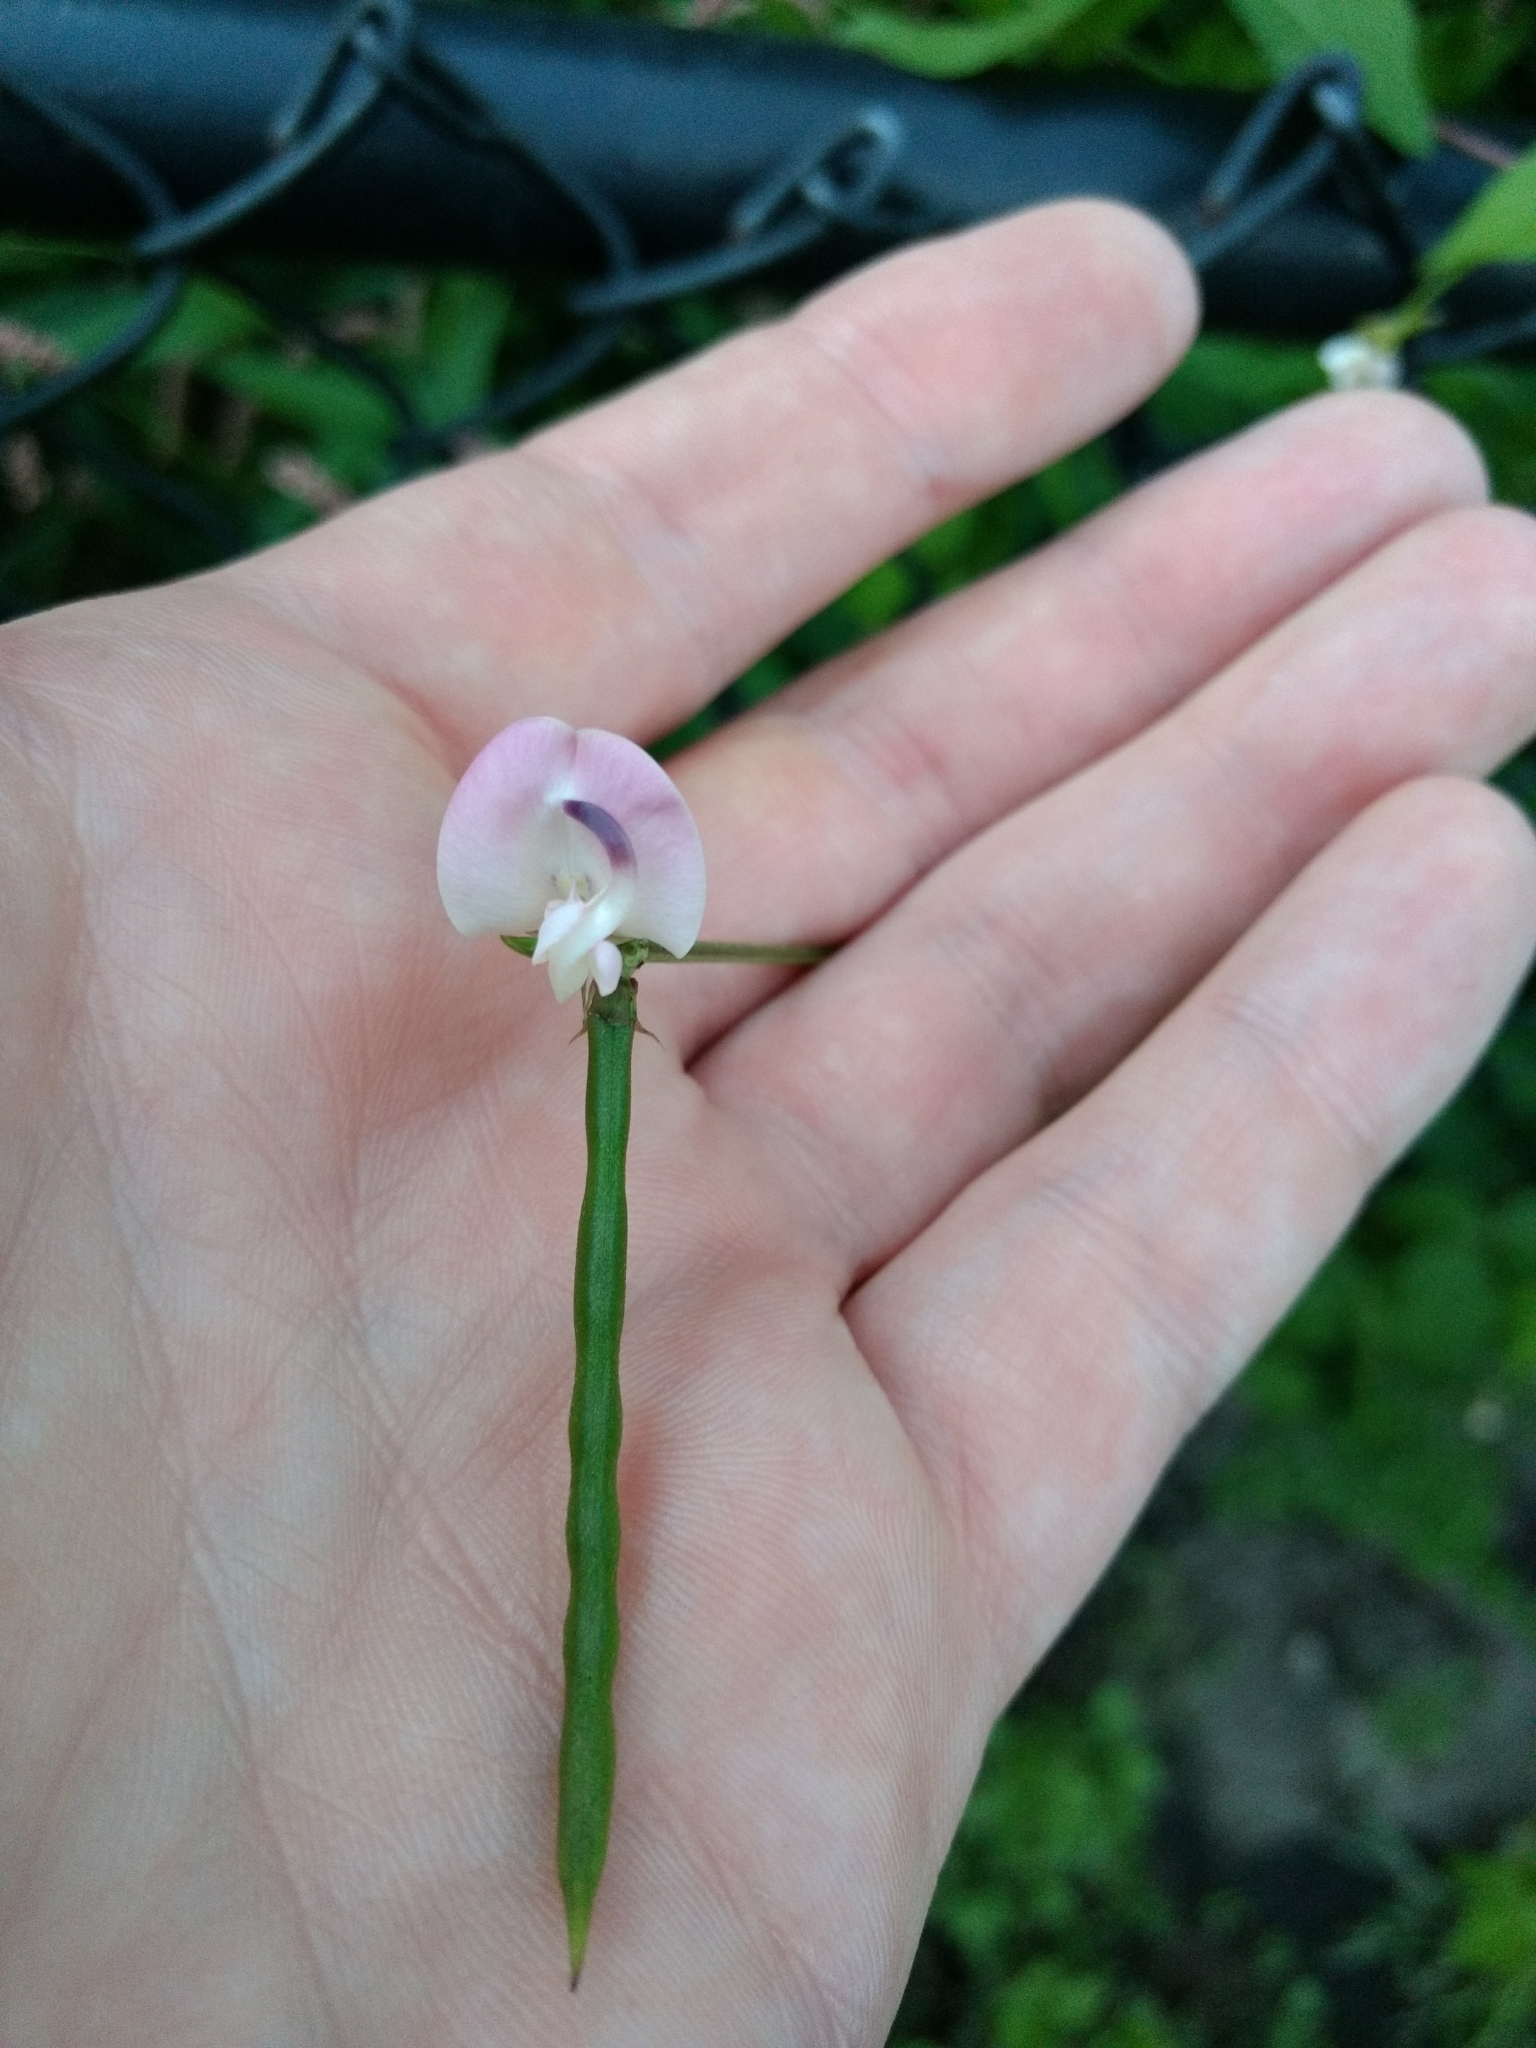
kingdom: Plantae
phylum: Tracheophyta
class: Magnoliopsida
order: Fabales
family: Fabaceae
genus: Strophostyles
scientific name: Strophostyles helvola
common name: Trailing wild bean
